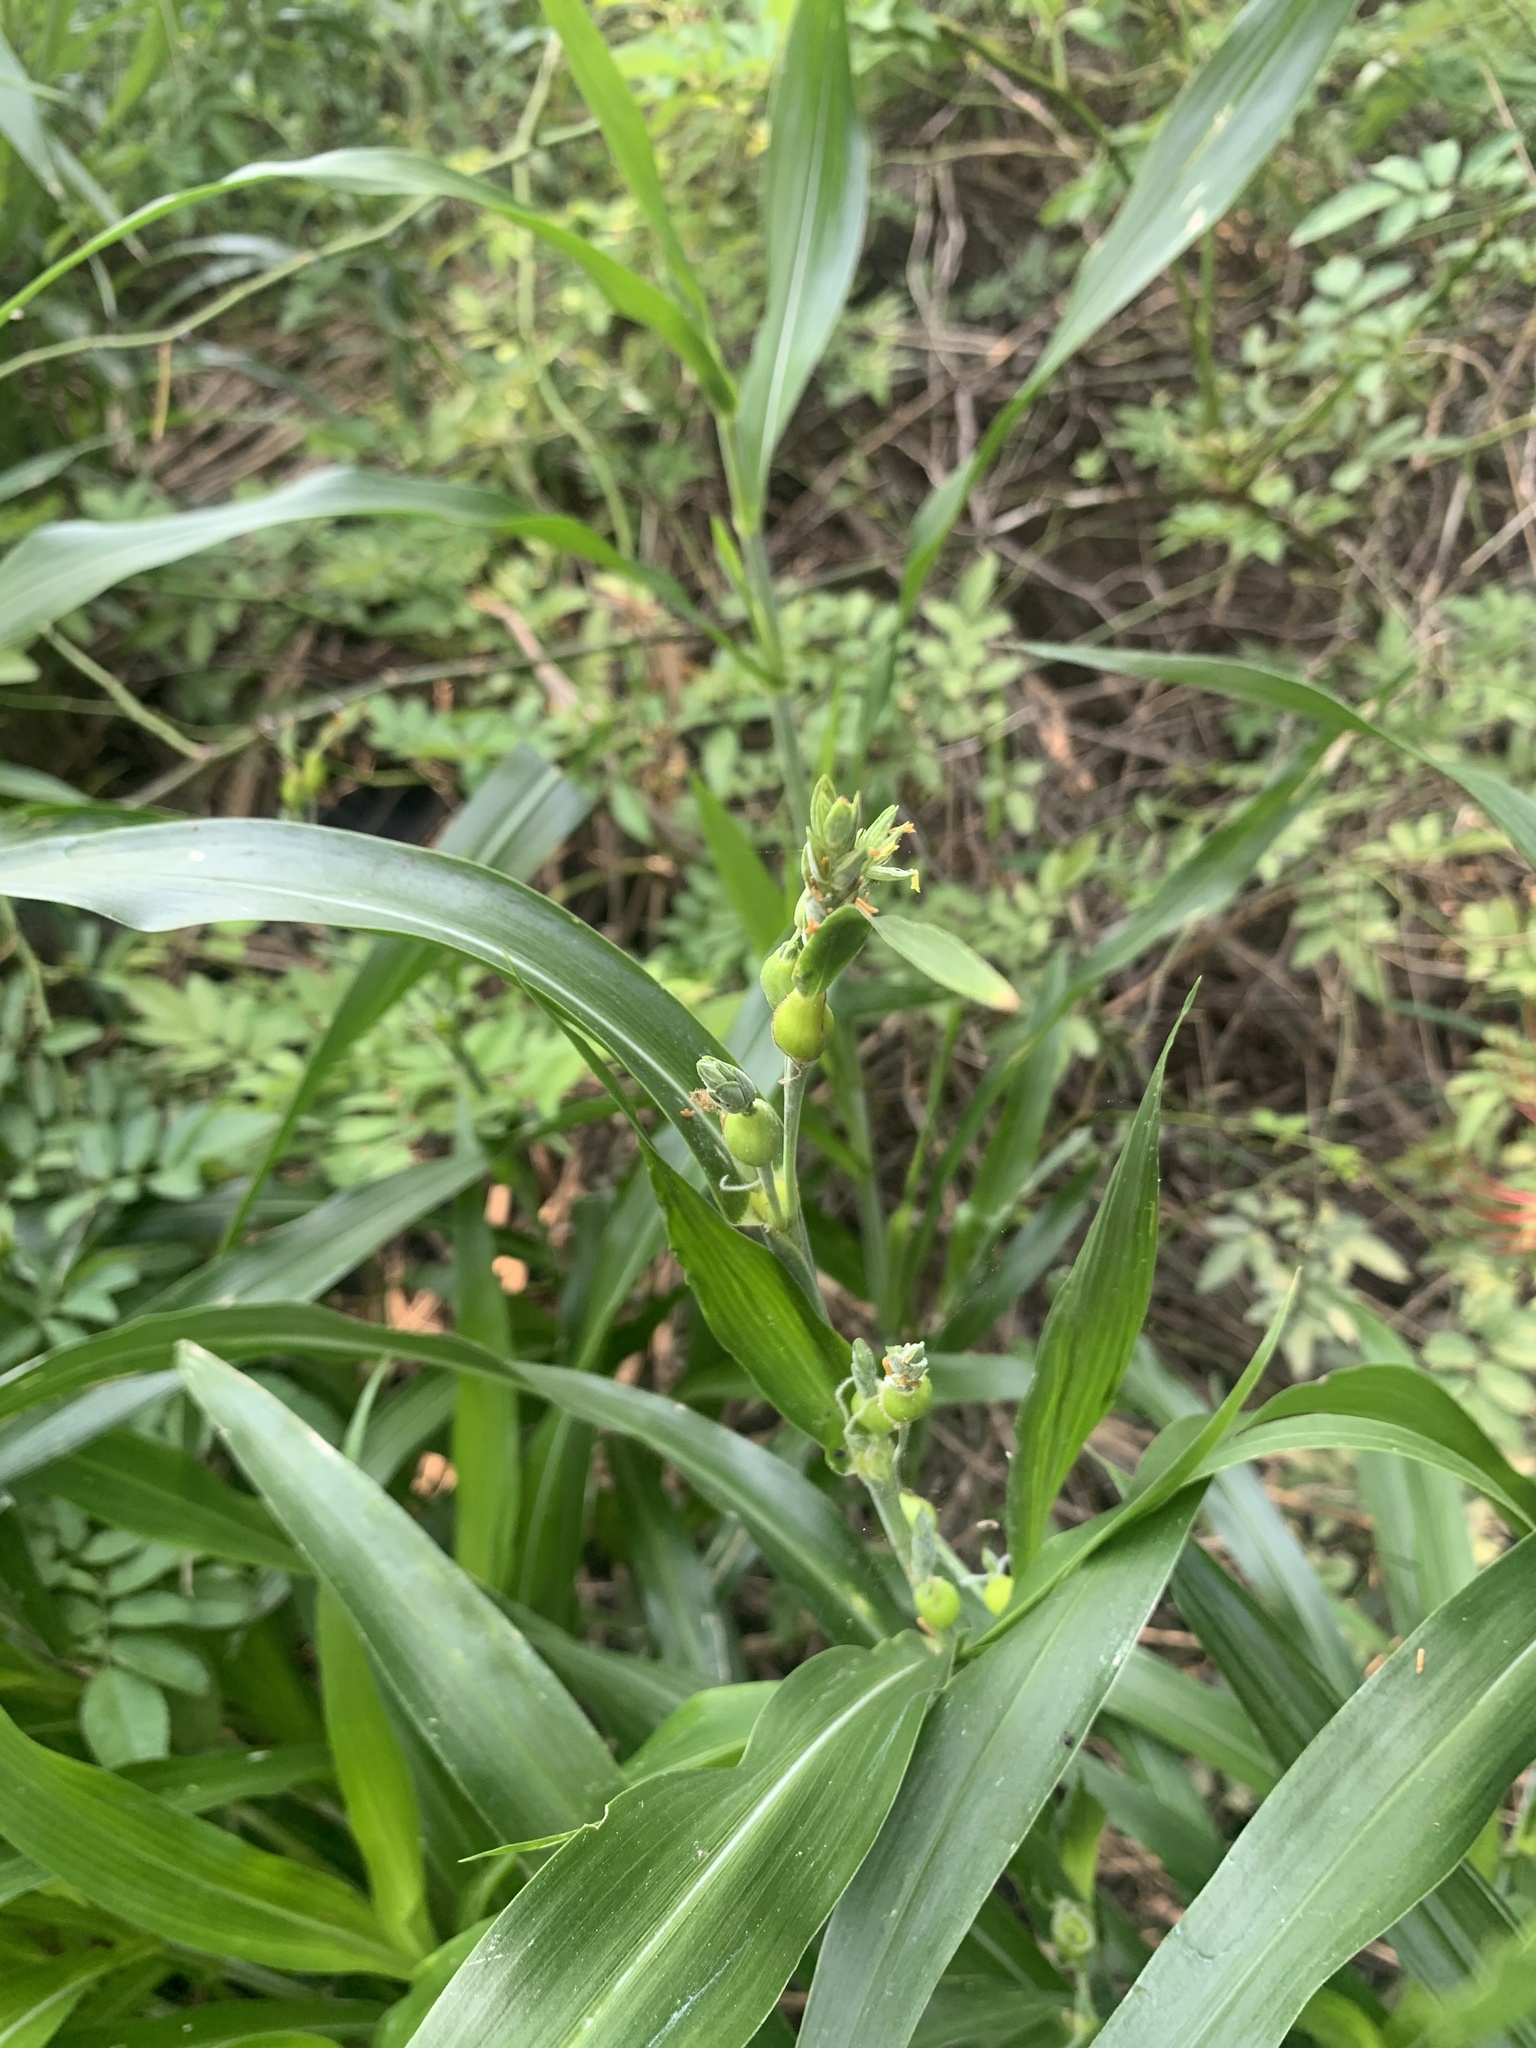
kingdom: Plantae
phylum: Tracheophyta
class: Liliopsida
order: Poales
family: Poaceae
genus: Coix
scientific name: Coix lacryma-jobi
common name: Job's tears
